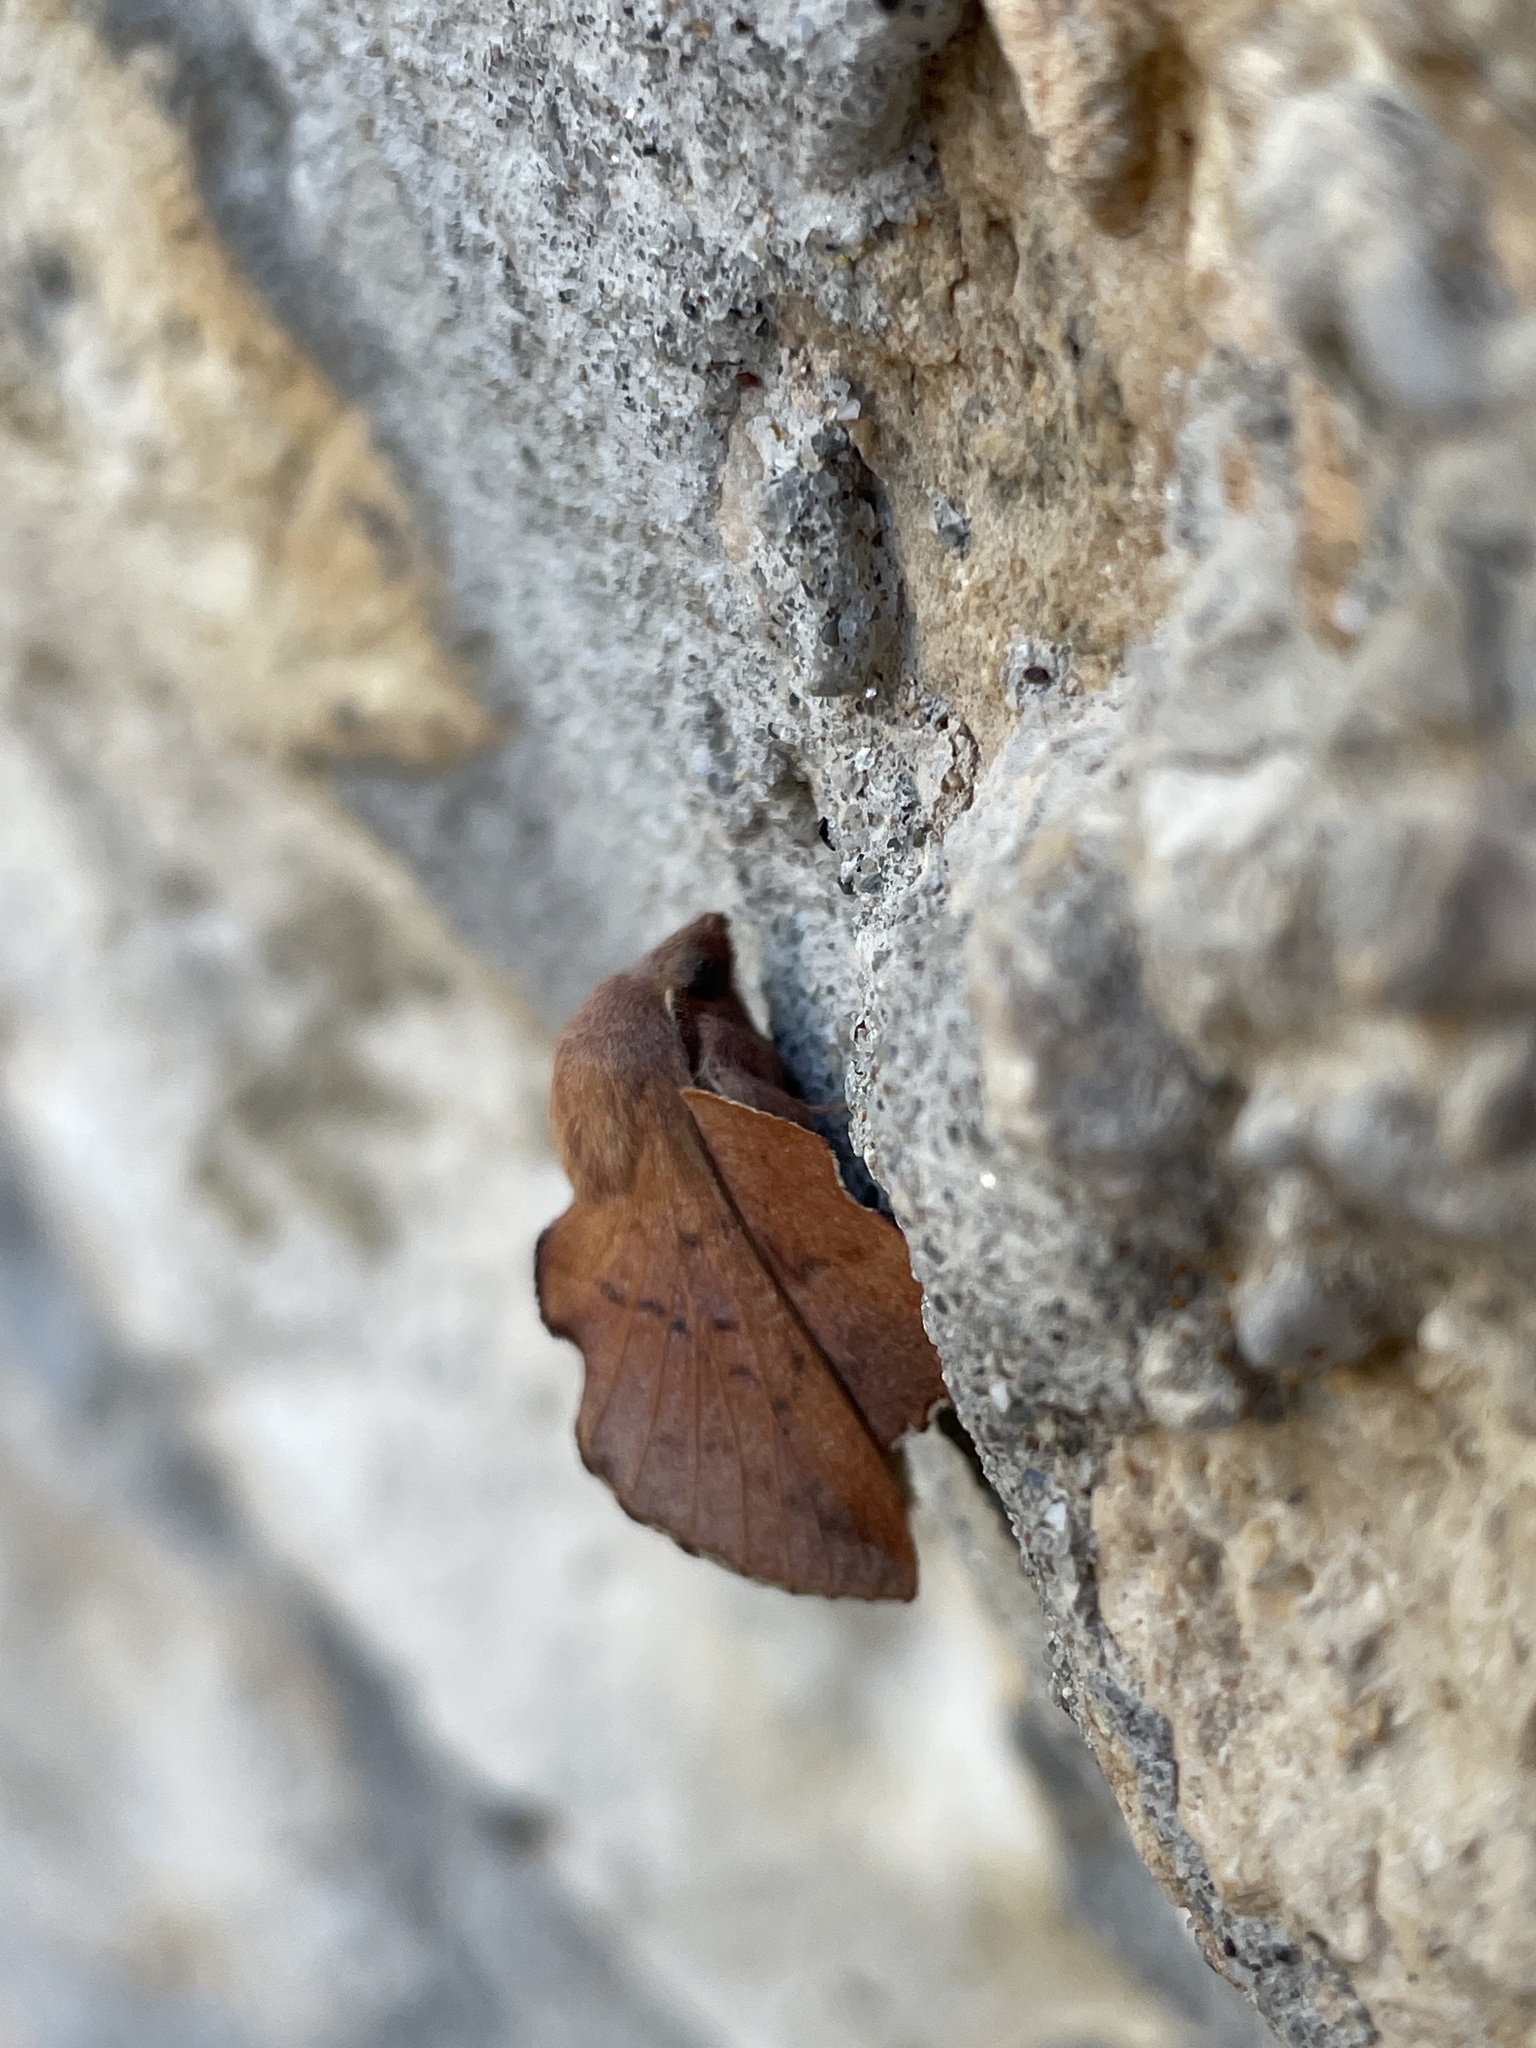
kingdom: Animalia
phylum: Arthropoda
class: Insecta
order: Lepidoptera
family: Lasiocampidae
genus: Phyllodesma
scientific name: Phyllodesma tremulifolia
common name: Aspen lappet
